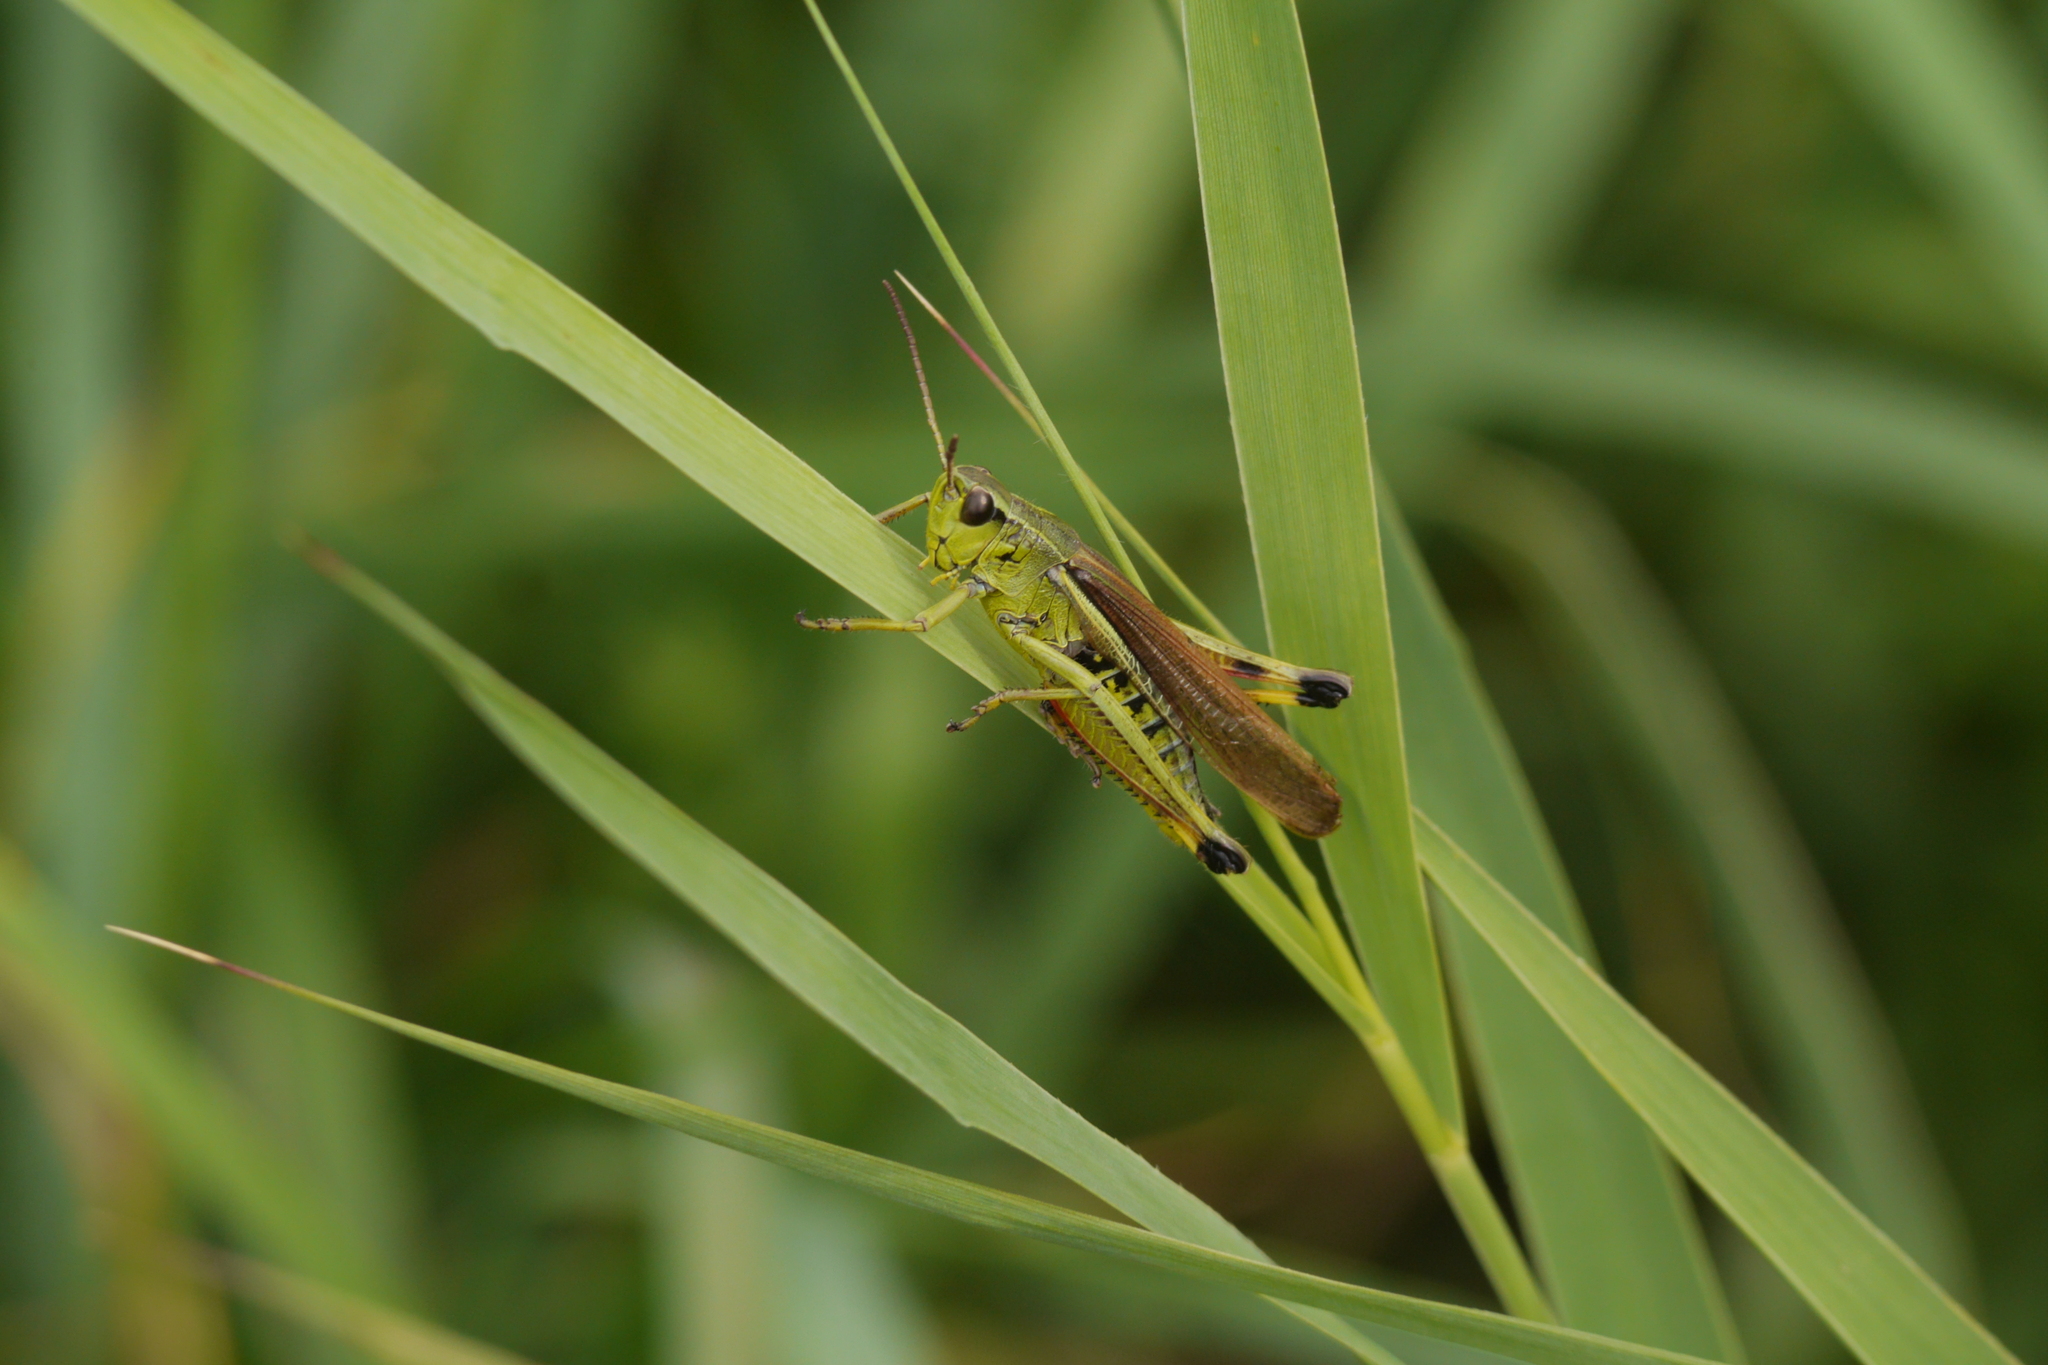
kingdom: Animalia
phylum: Arthropoda
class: Insecta
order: Orthoptera
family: Acrididae
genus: Stethophyma
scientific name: Stethophyma grossum
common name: Large marsh grasshopper
